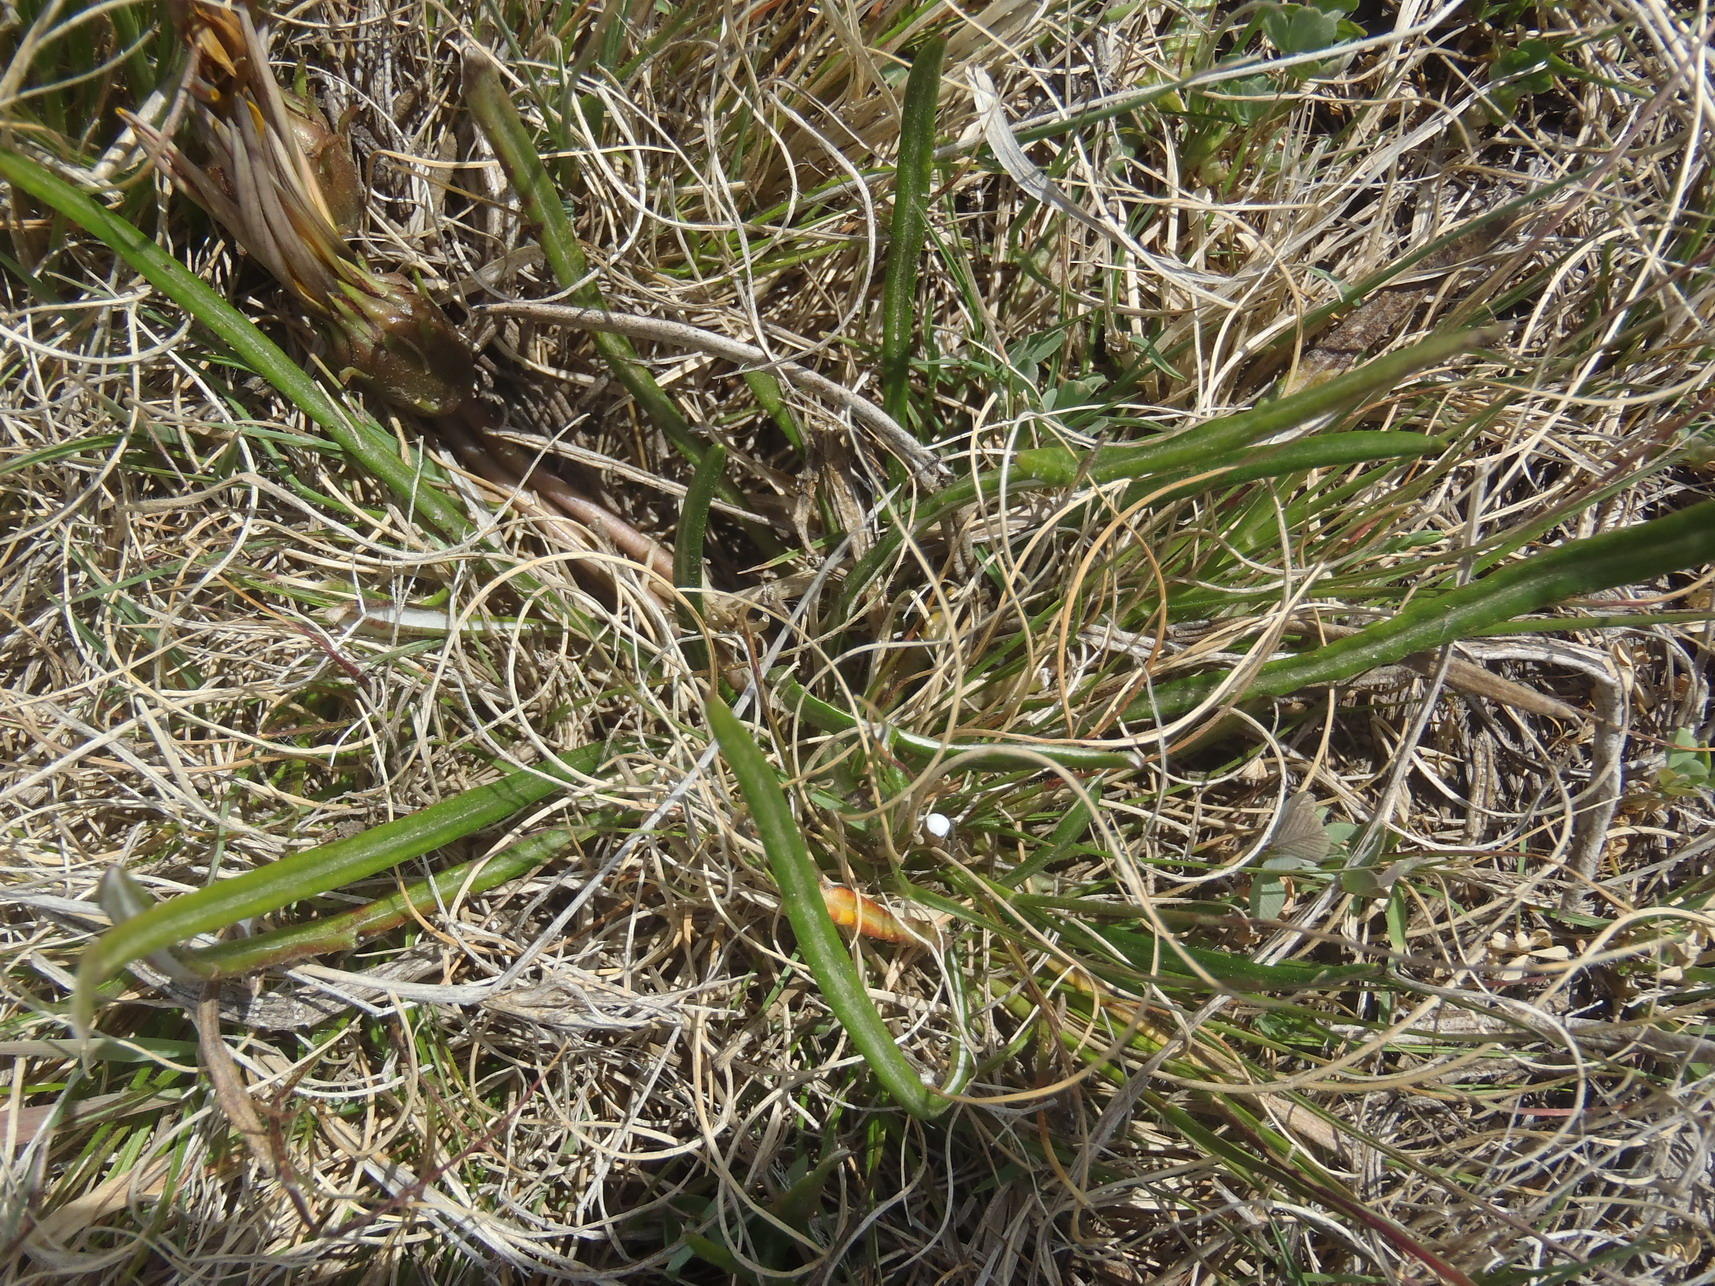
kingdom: Plantae
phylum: Tracheophyta
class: Magnoliopsida
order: Asterales
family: Asteraceae
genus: Gazania
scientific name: Gazania krebsiana
